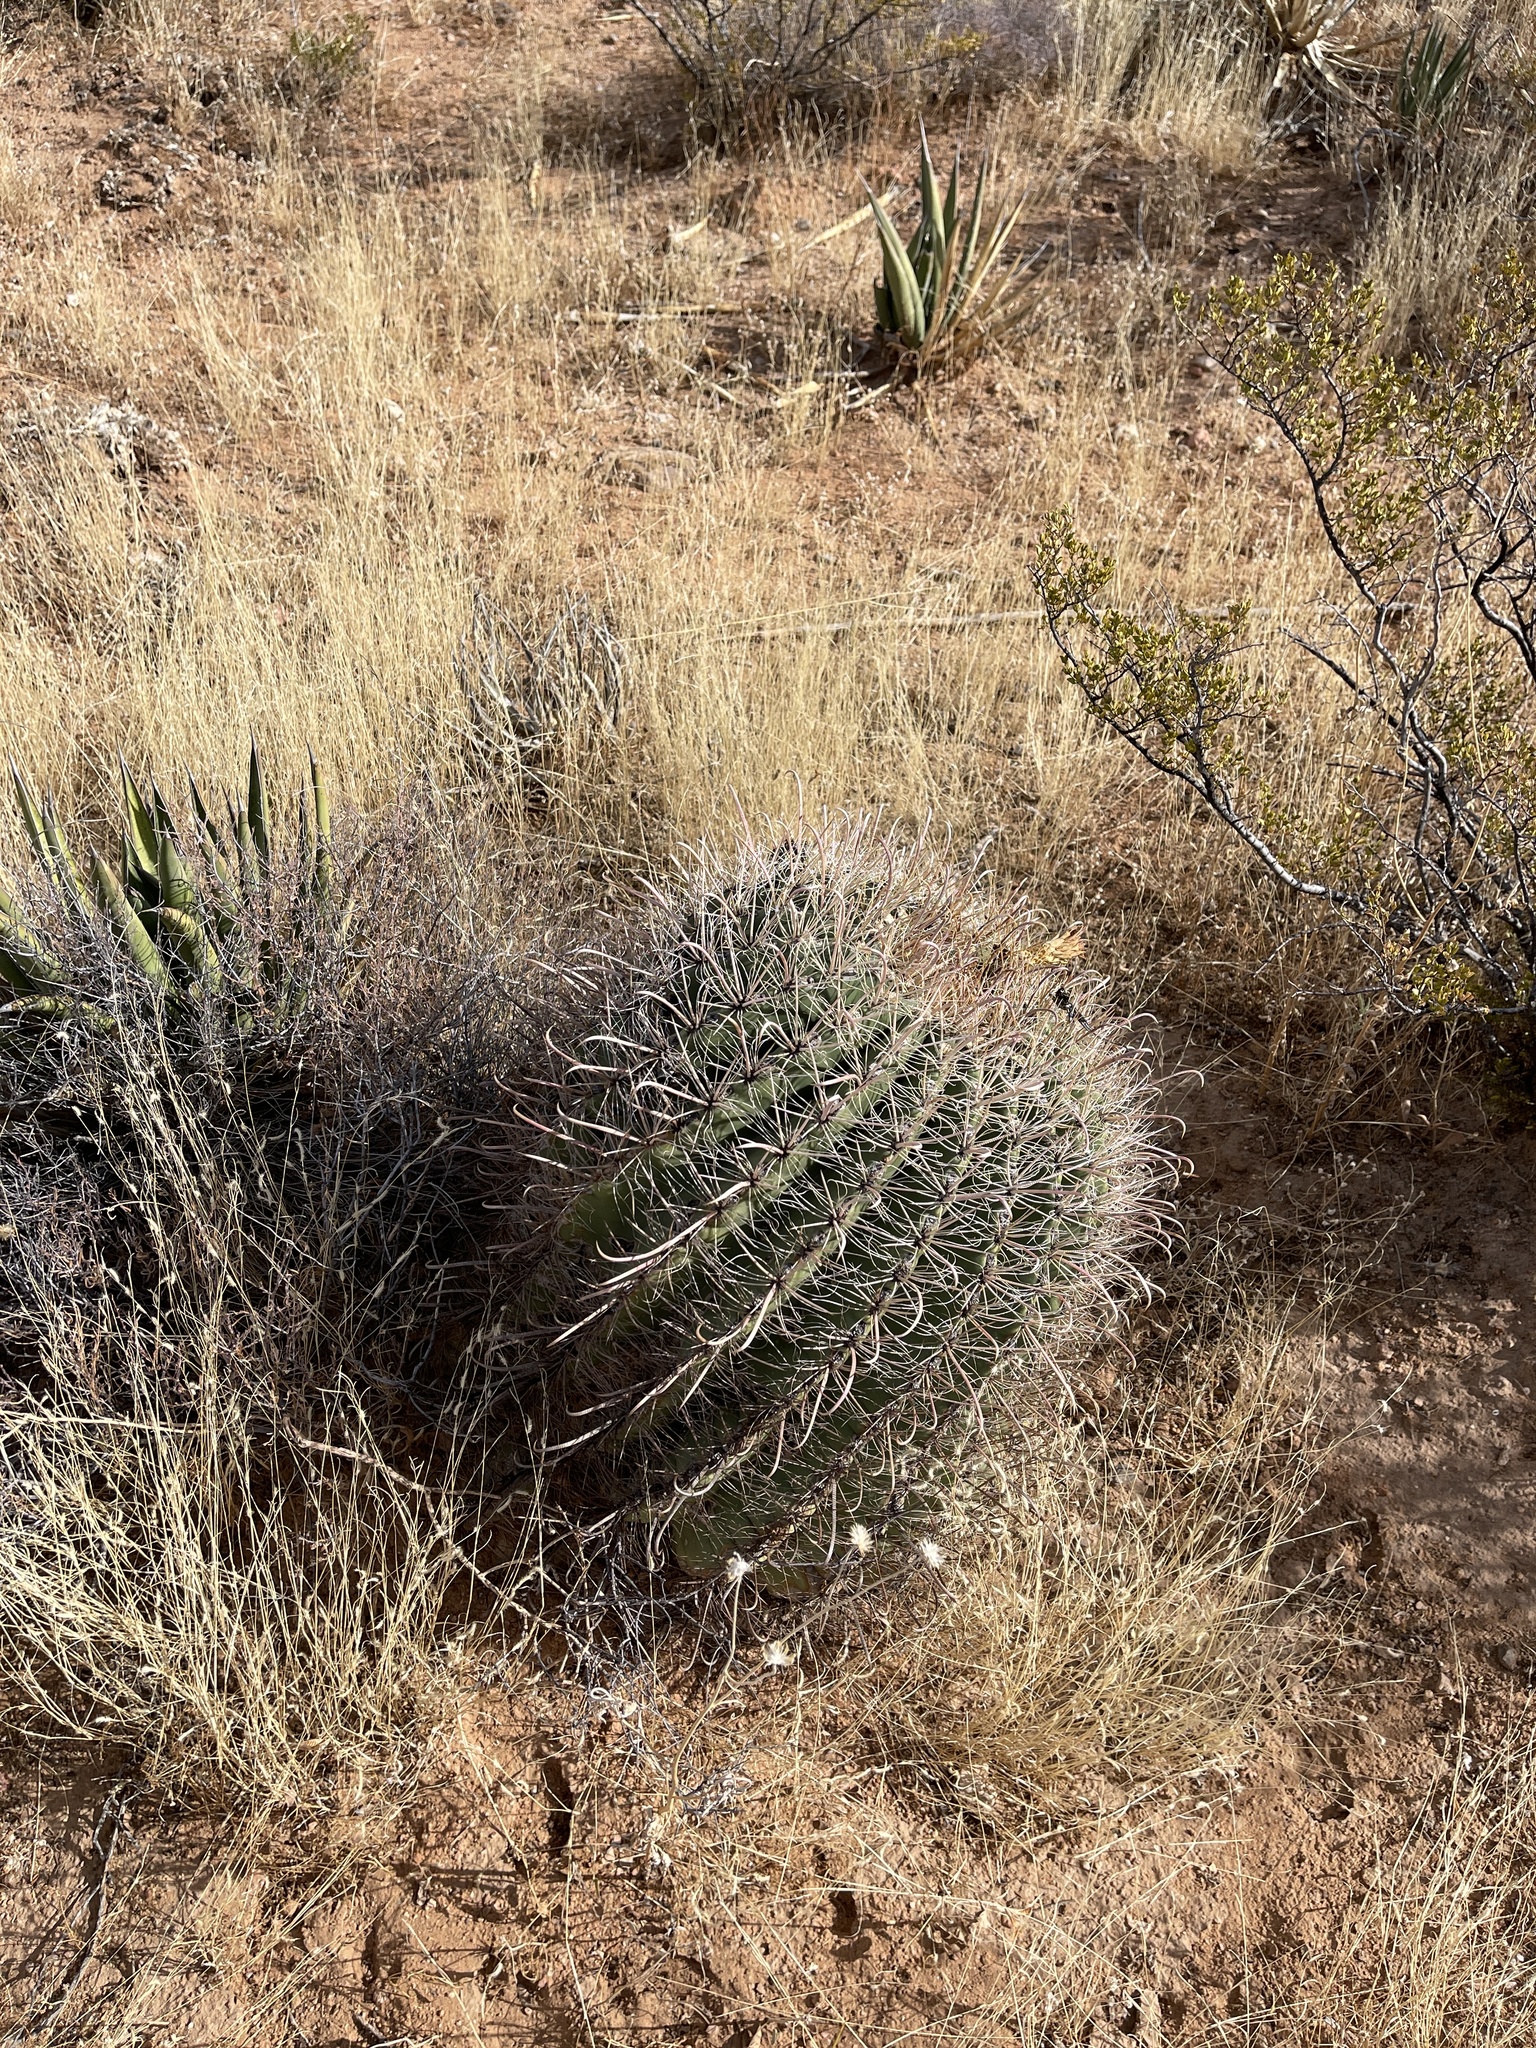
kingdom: Plantae
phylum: Tracheophyta
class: Magnoliopsida
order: Caryophyllales
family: Cactaceae
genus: Ferocactus
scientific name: Ferocactus wislizeni
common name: Candy barrel cactus
